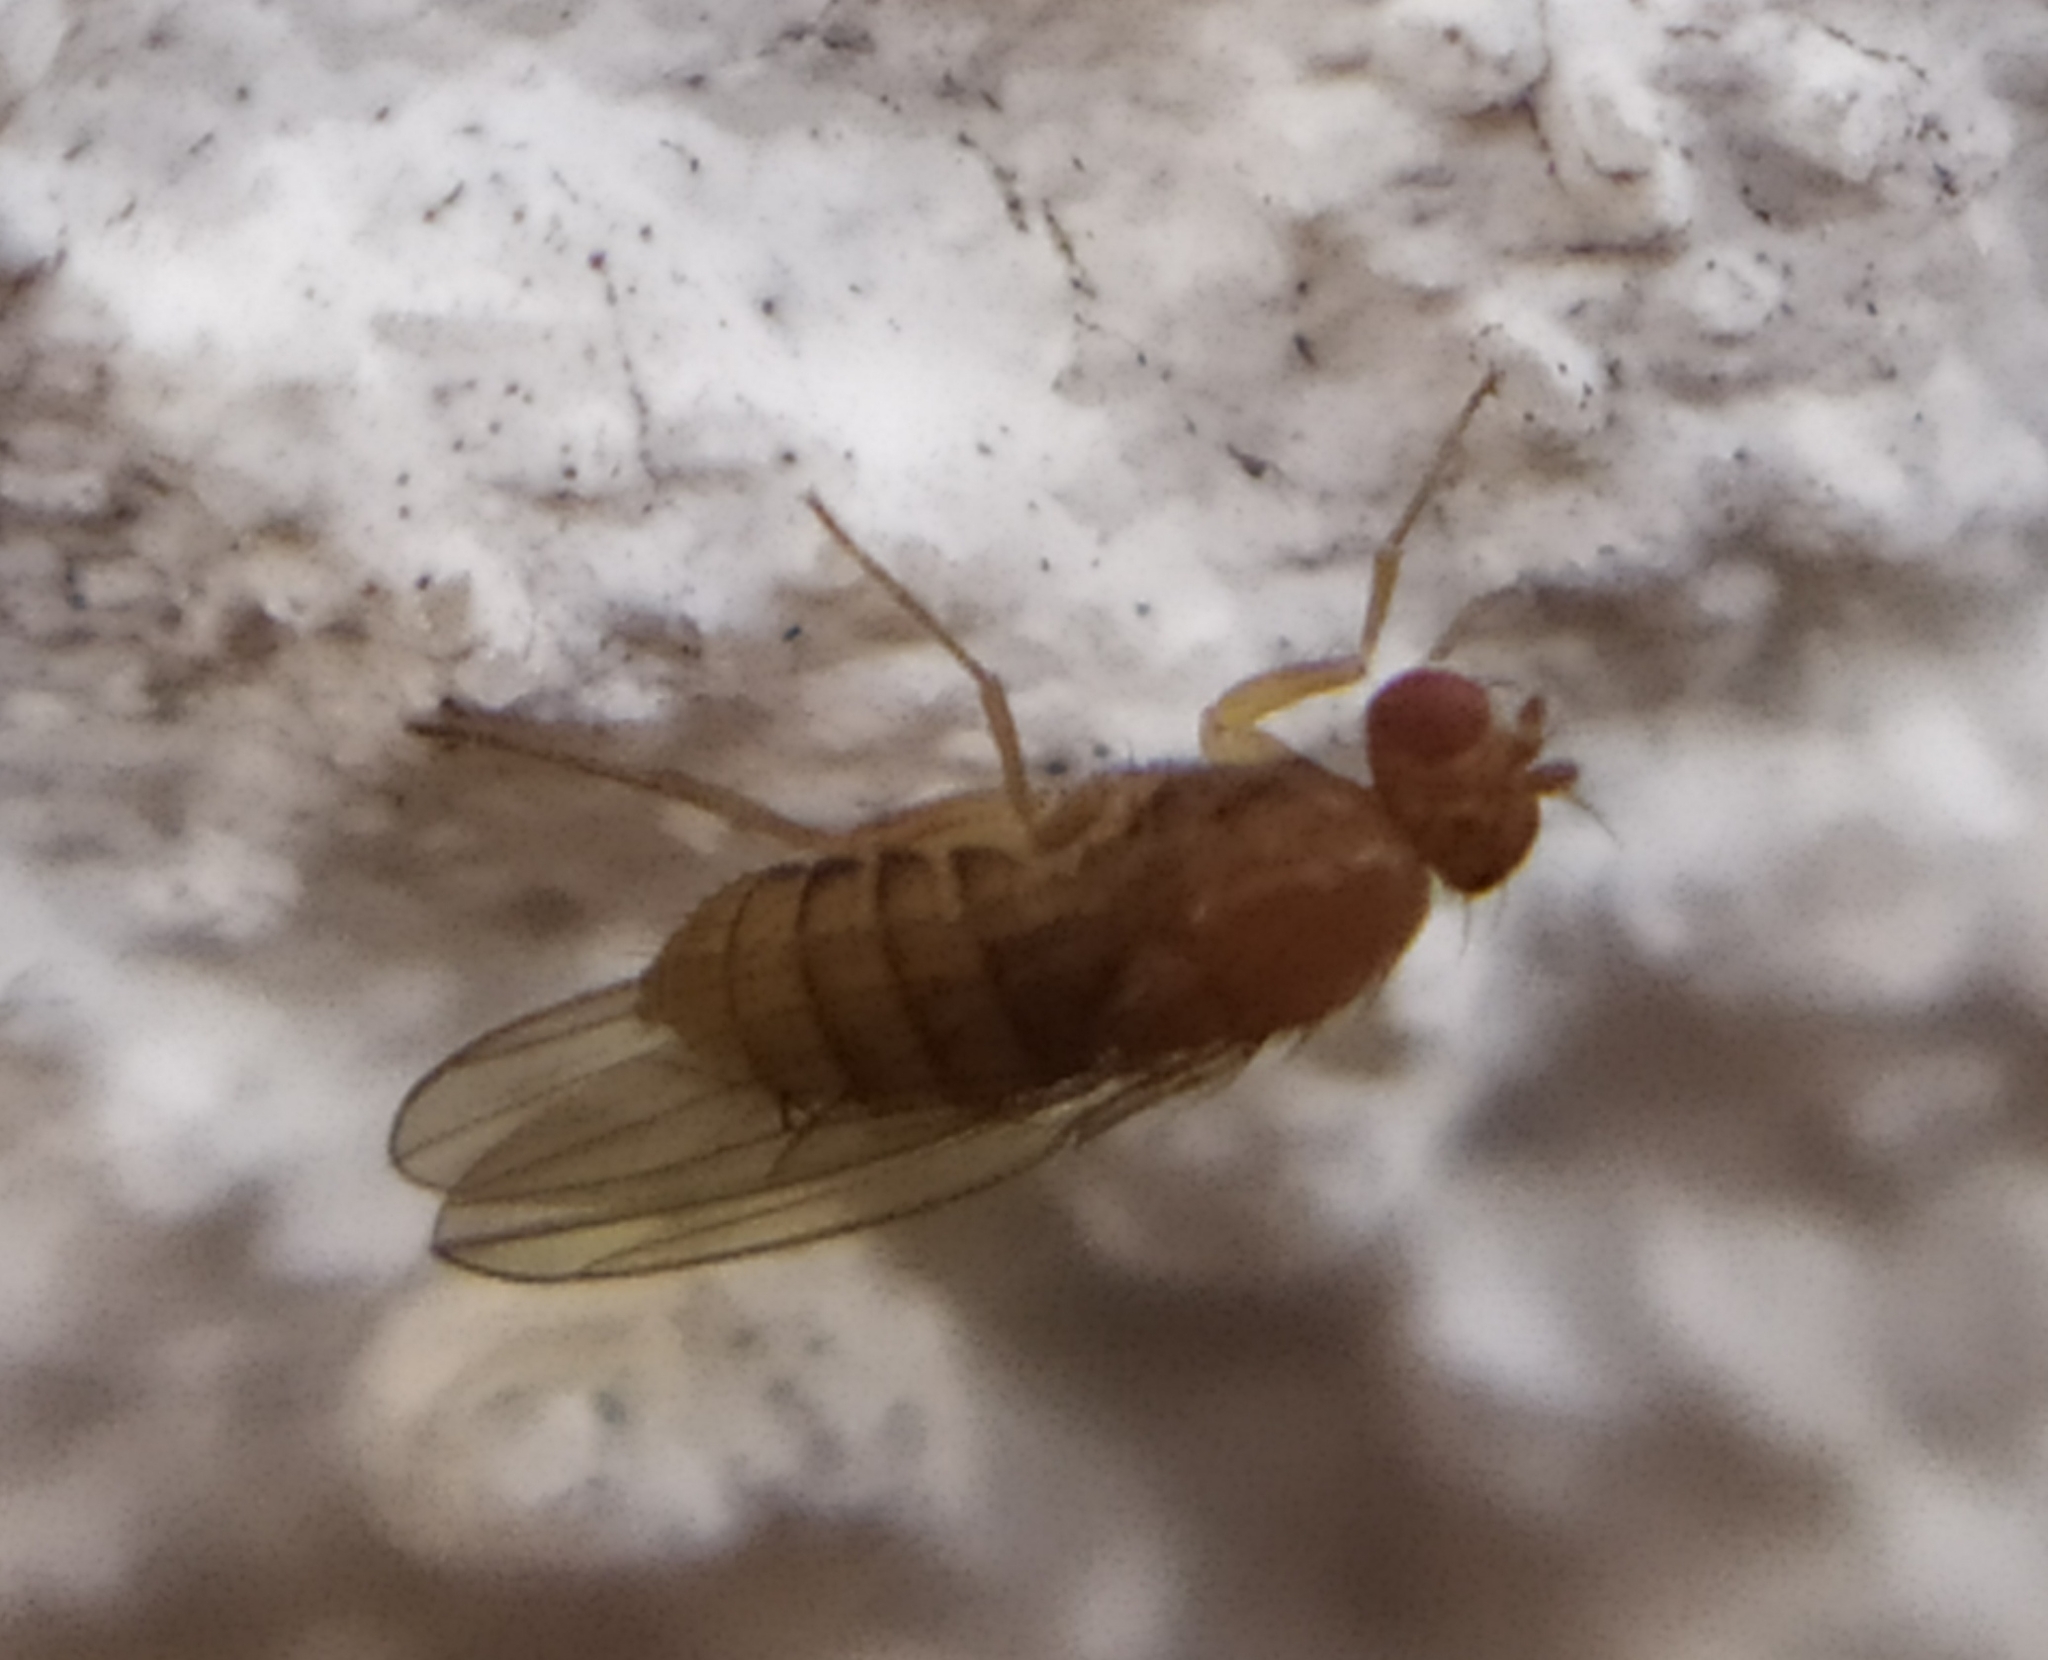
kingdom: Animalia
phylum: Arthropoda
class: Insecta
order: Diptera
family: Drosophilidae
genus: Lordiphosa
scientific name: Lordiphosa fenestrarum
